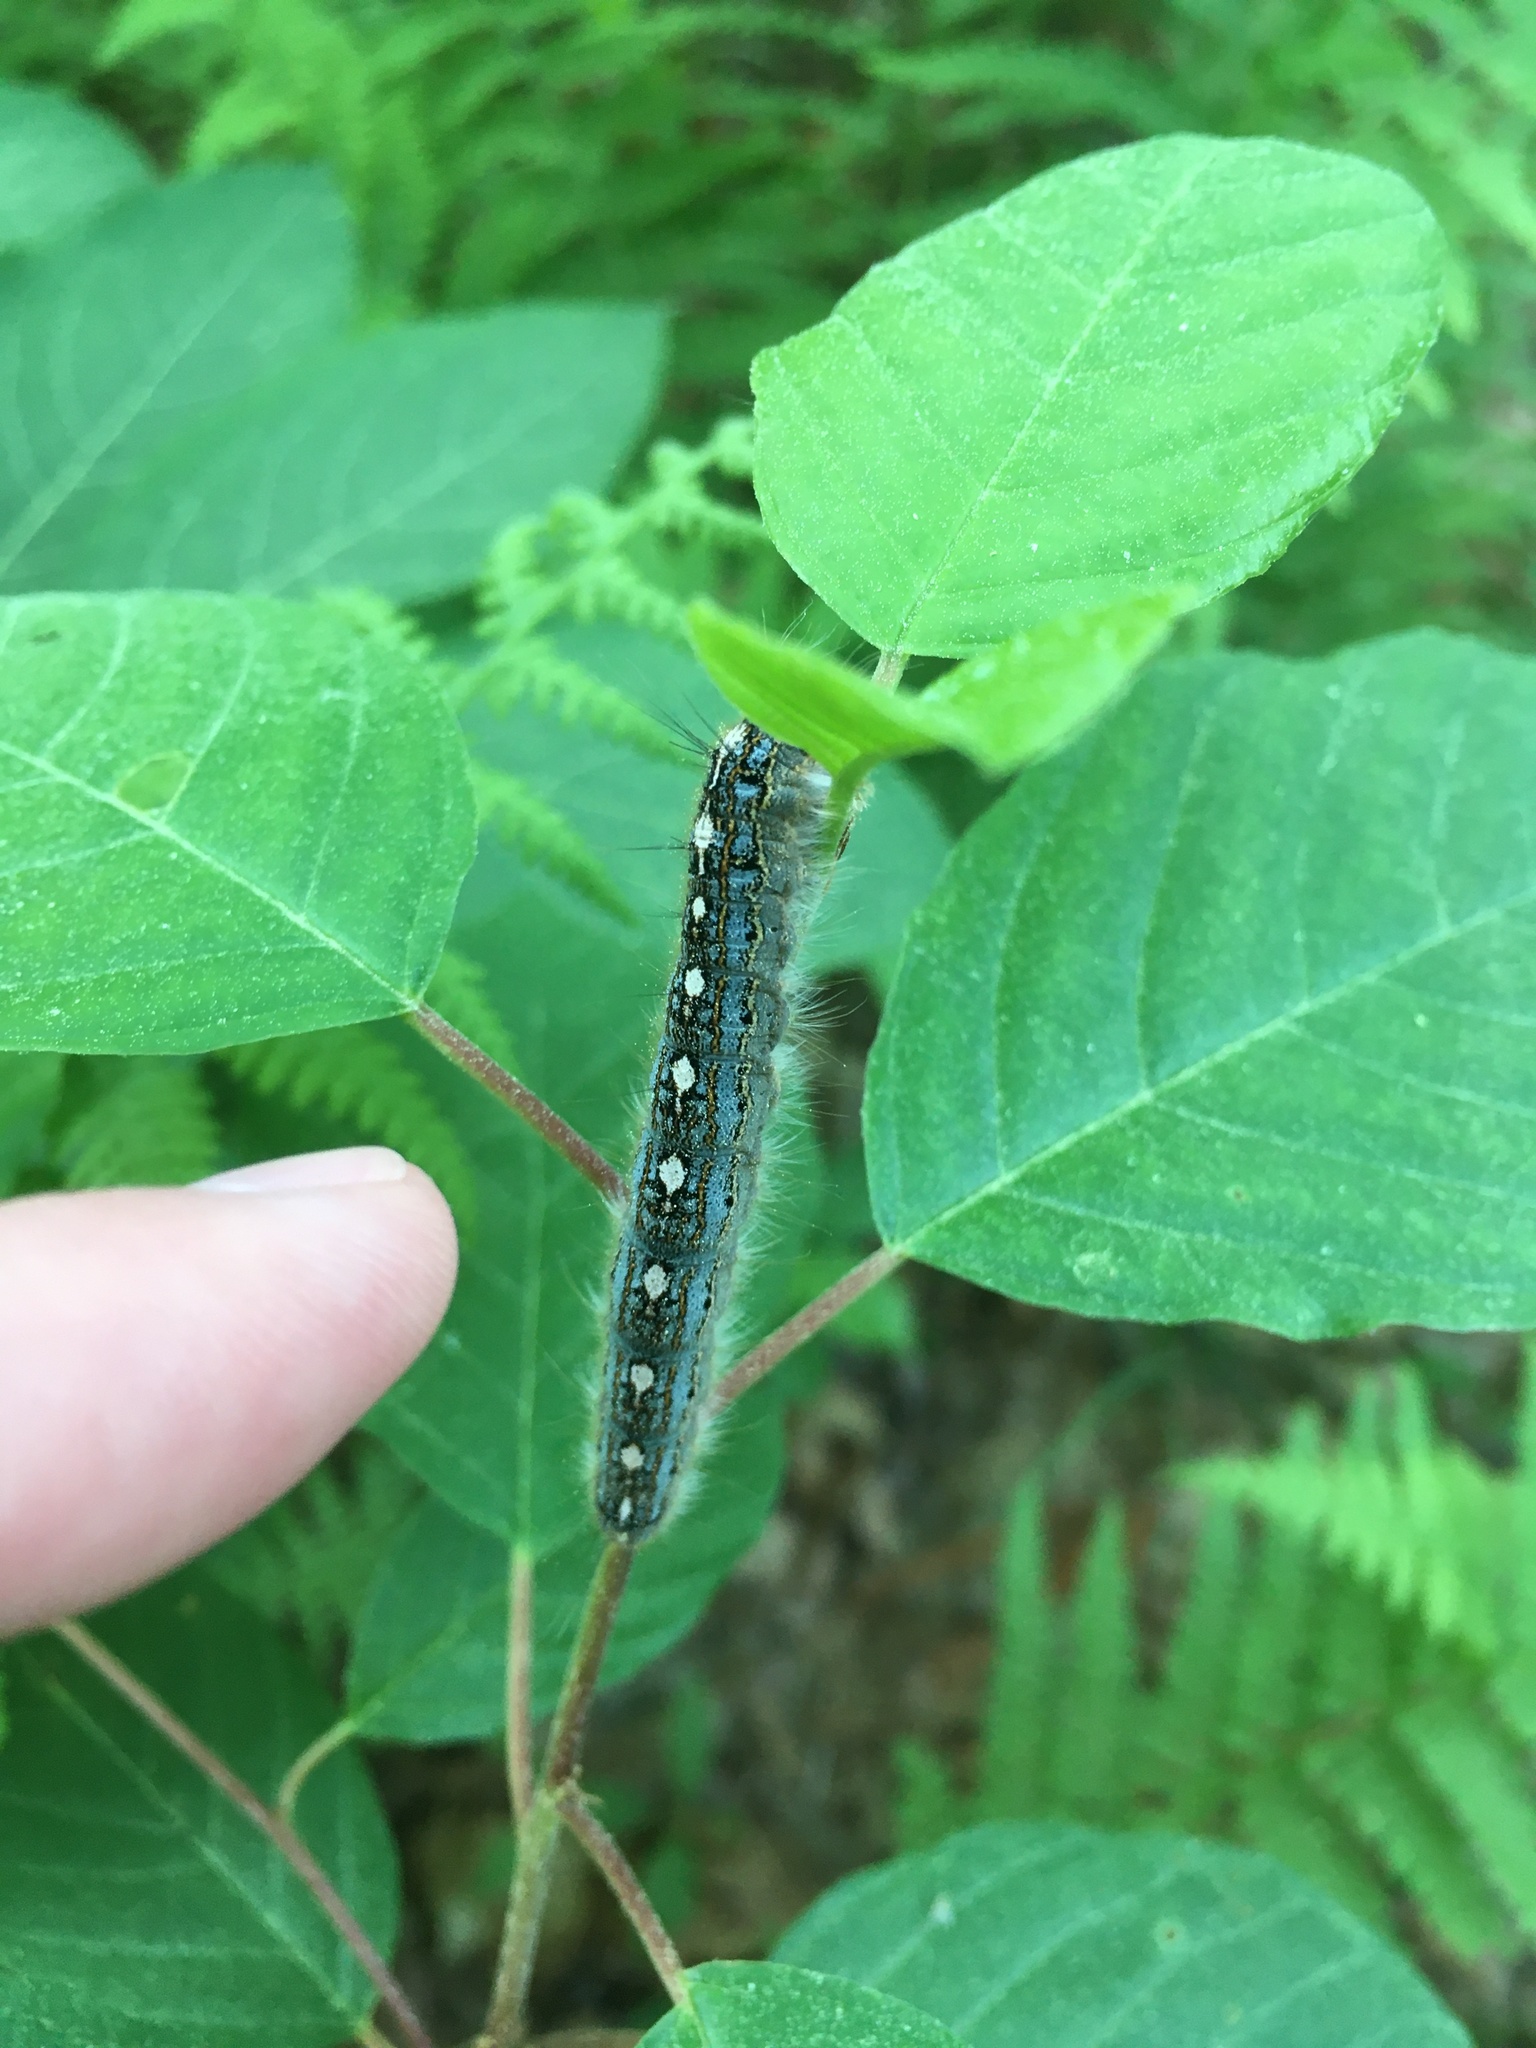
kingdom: Animalia
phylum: Arthropoda
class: Insecta
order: Lepidoptera
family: Lasiocampidae
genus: Malacosoma
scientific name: Malacosoma disstria
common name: Forest tent caterpillar
